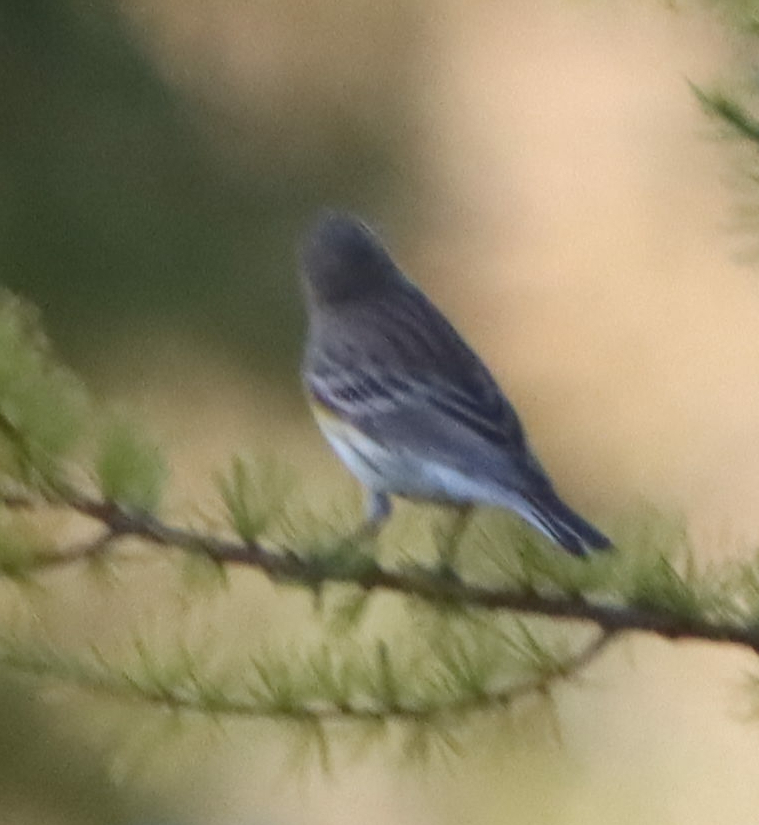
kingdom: Animalia
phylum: Chordata
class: Aves
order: Passeriformes
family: Parulidae
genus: Setophaga
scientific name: Setophaga coronata
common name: Myrtle warbler
